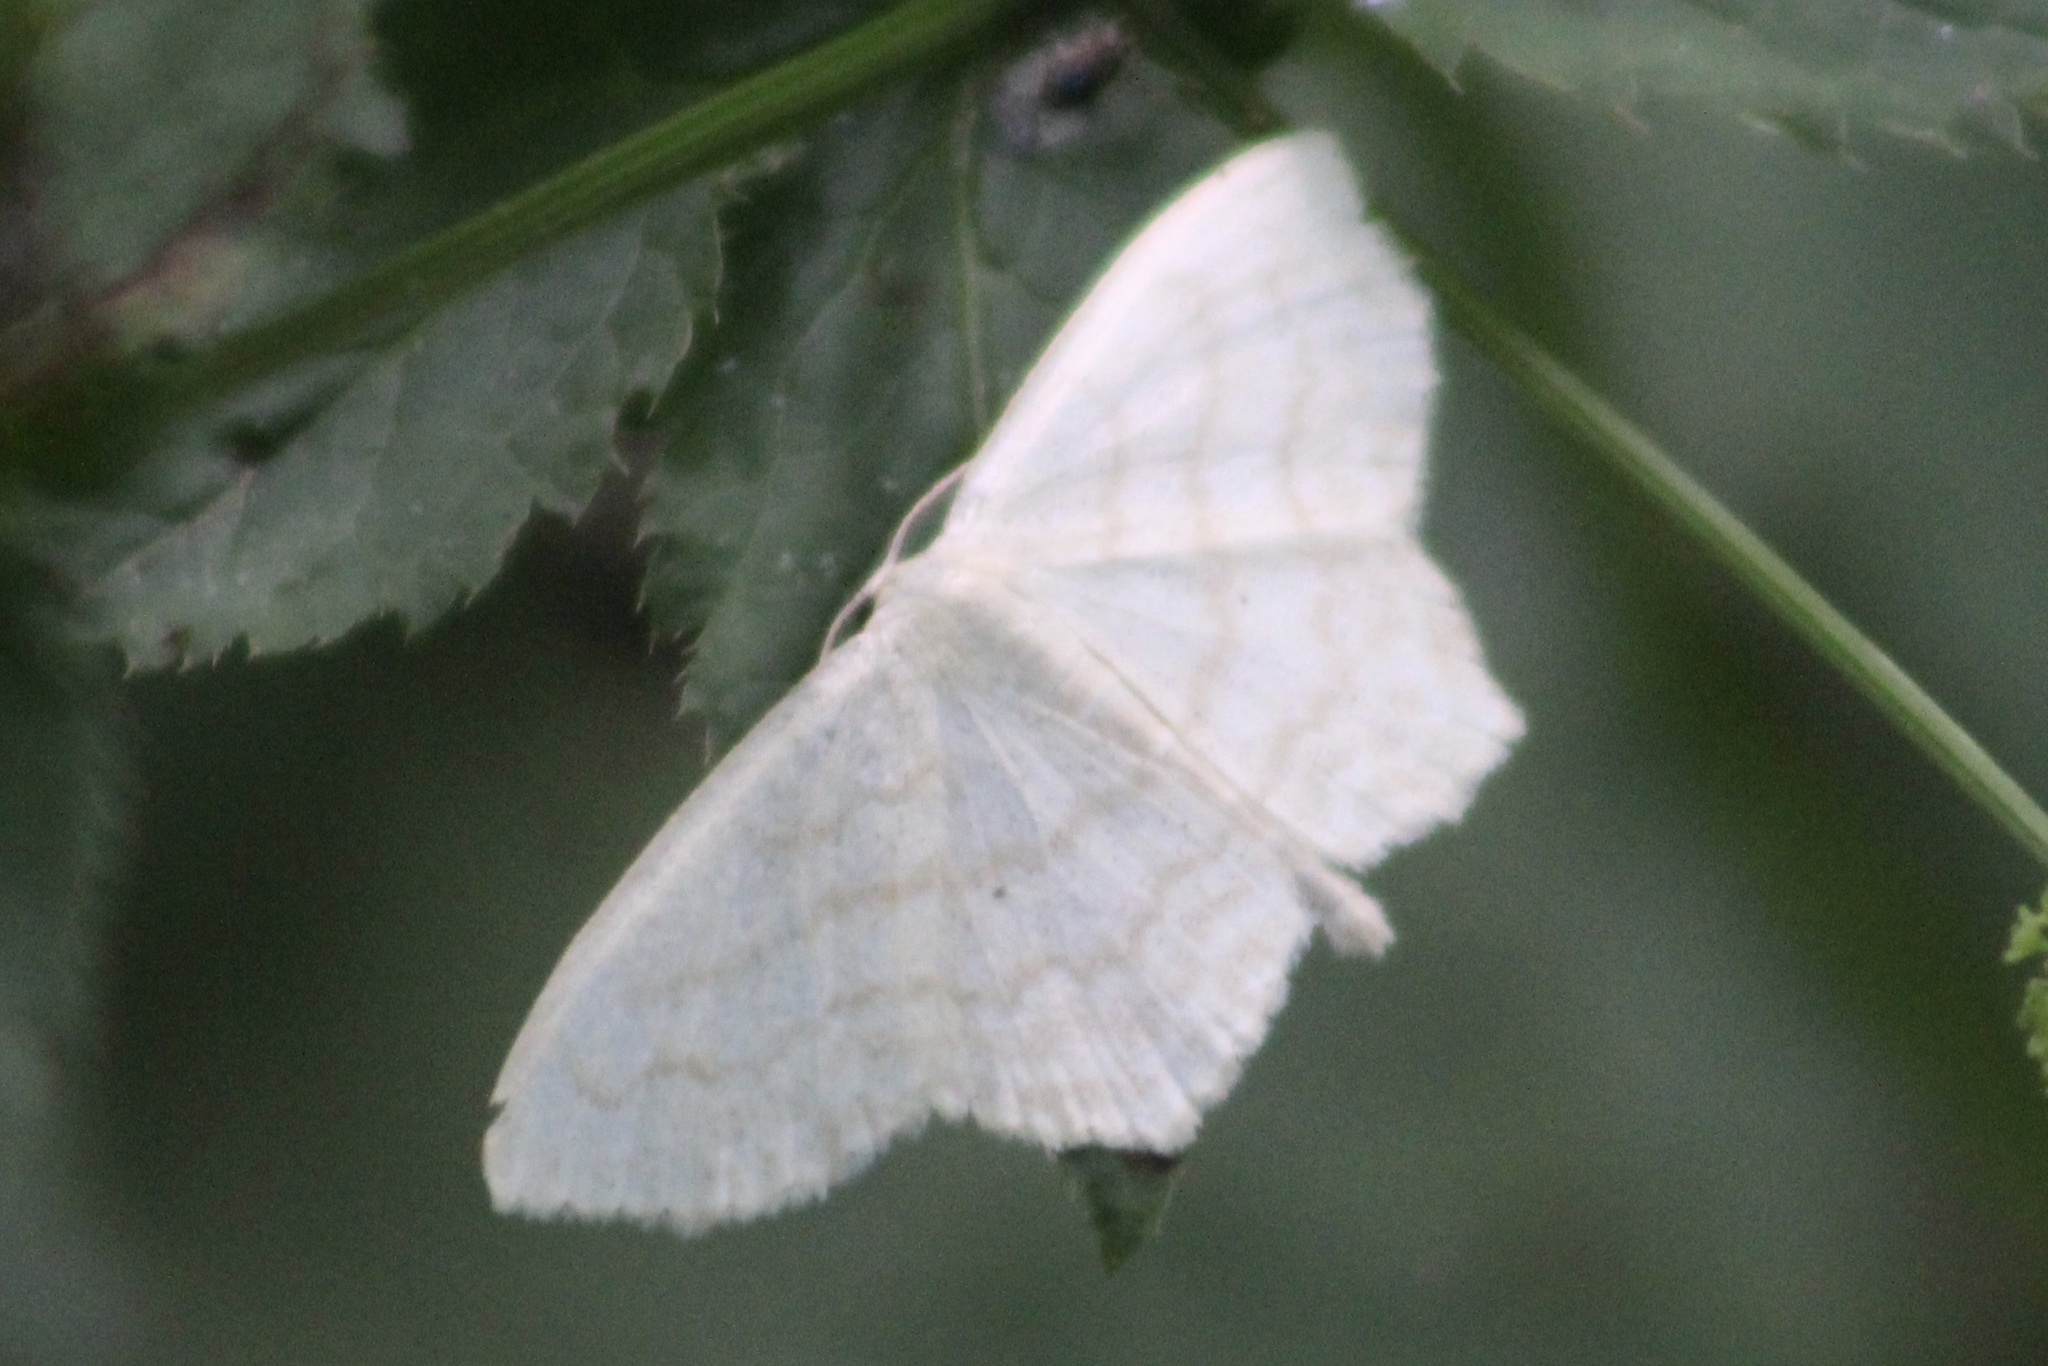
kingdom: Animalia
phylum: Arthropoda
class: Insecta
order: Lepidoptera
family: Geometridae
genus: Scopula
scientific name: Scopula limboundata
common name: Large lace border
